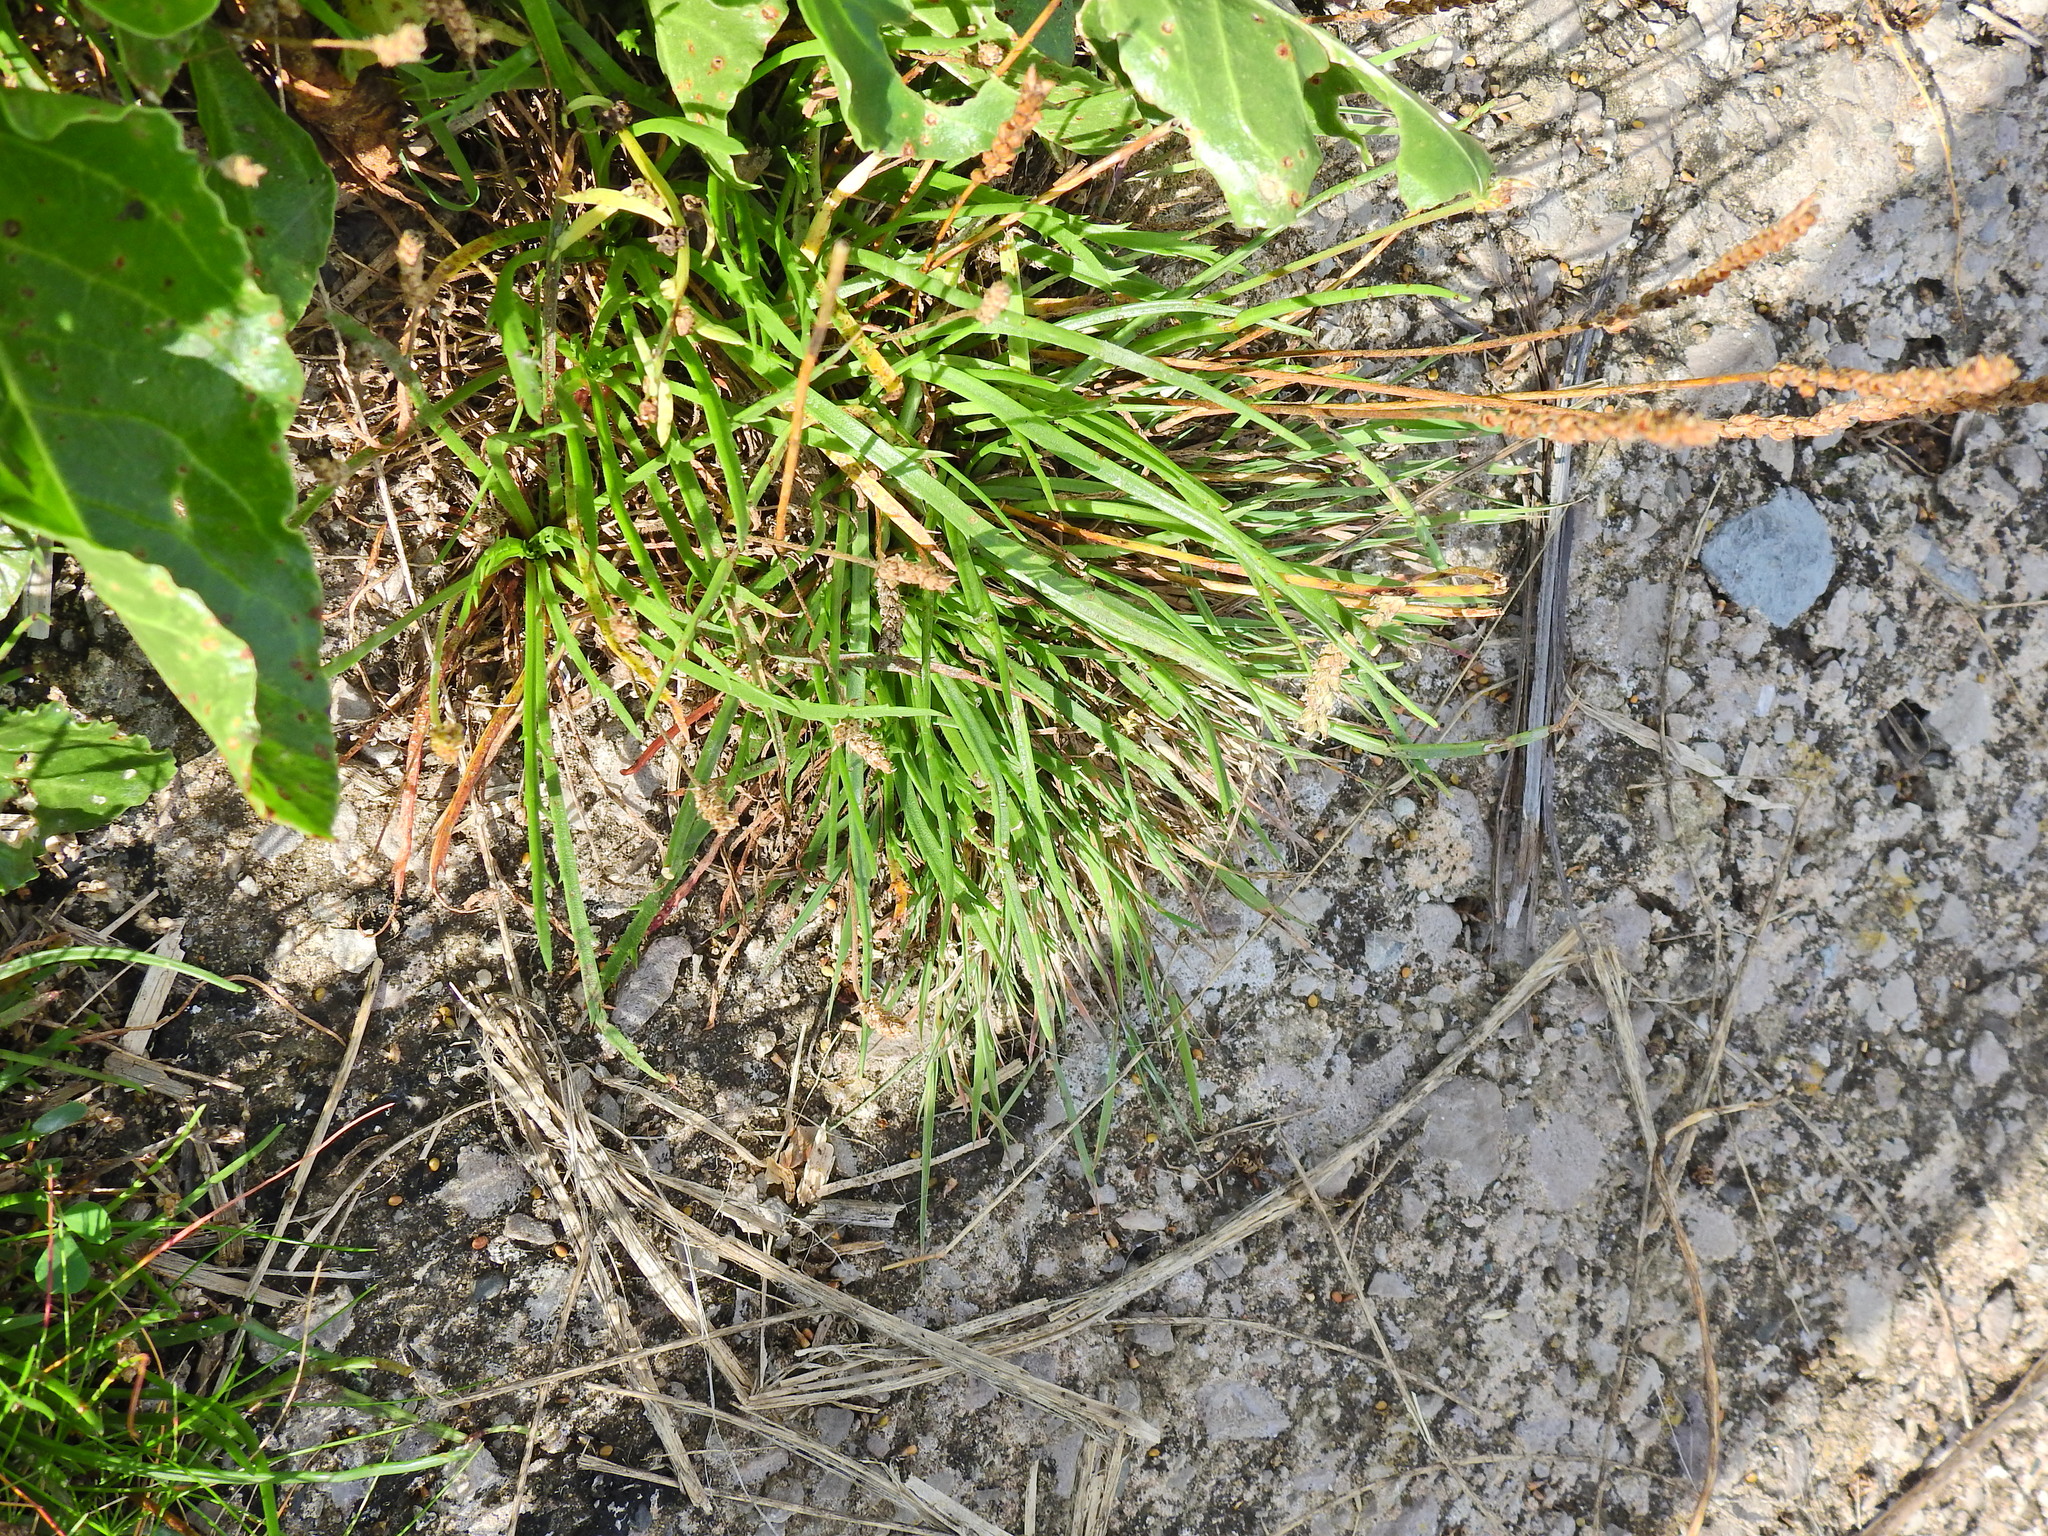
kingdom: Plantae
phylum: Tracheophyta
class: Magnoliopsida
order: Lamiales
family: Plantaginaceae
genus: Plantago
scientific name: Plantago maritima
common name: Sea plantain
